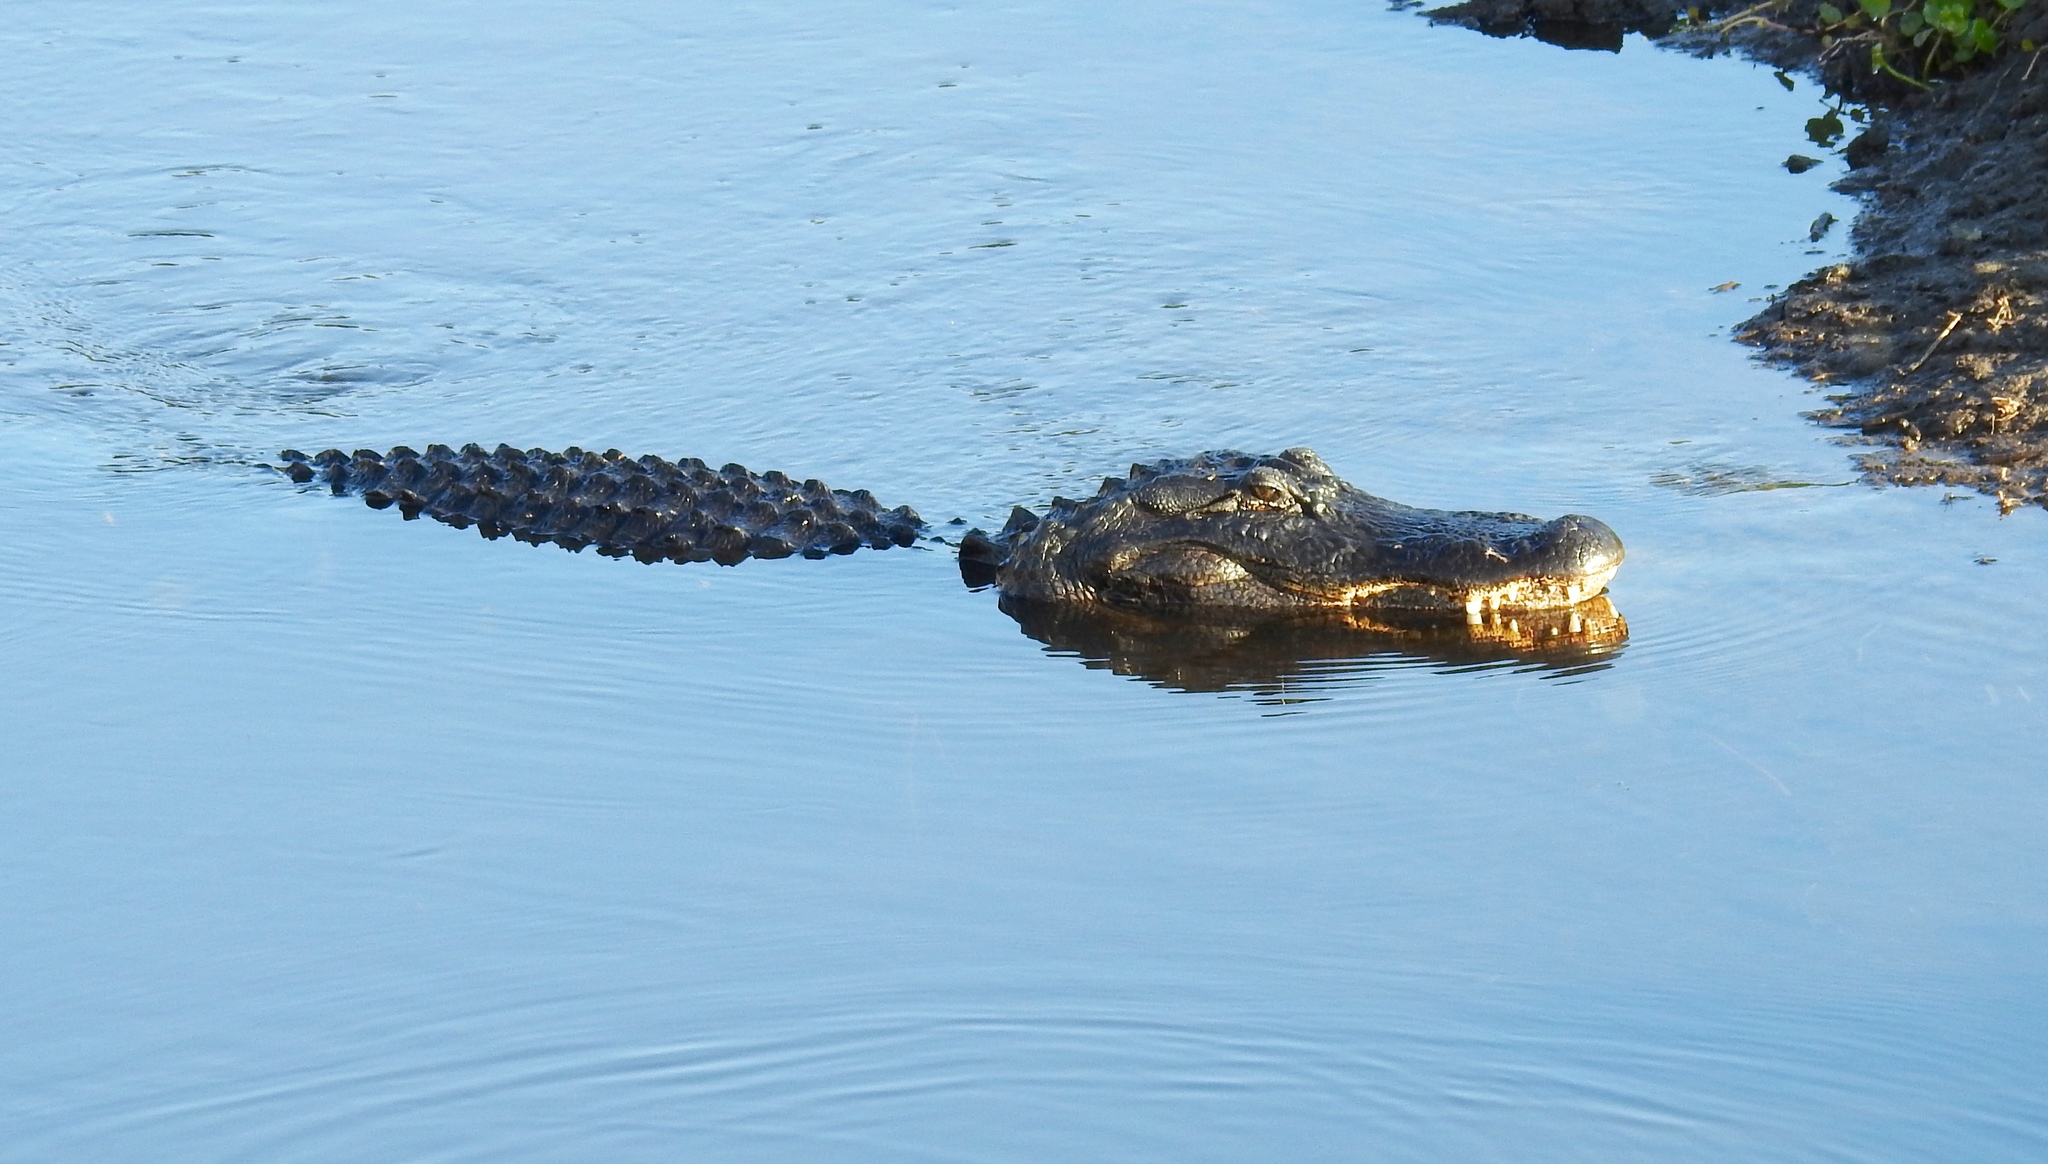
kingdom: Animalia
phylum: Chordata
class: Crocodylia
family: Alligatoridae
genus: Alligator
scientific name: Alligator mississippiensis
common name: American alligator
